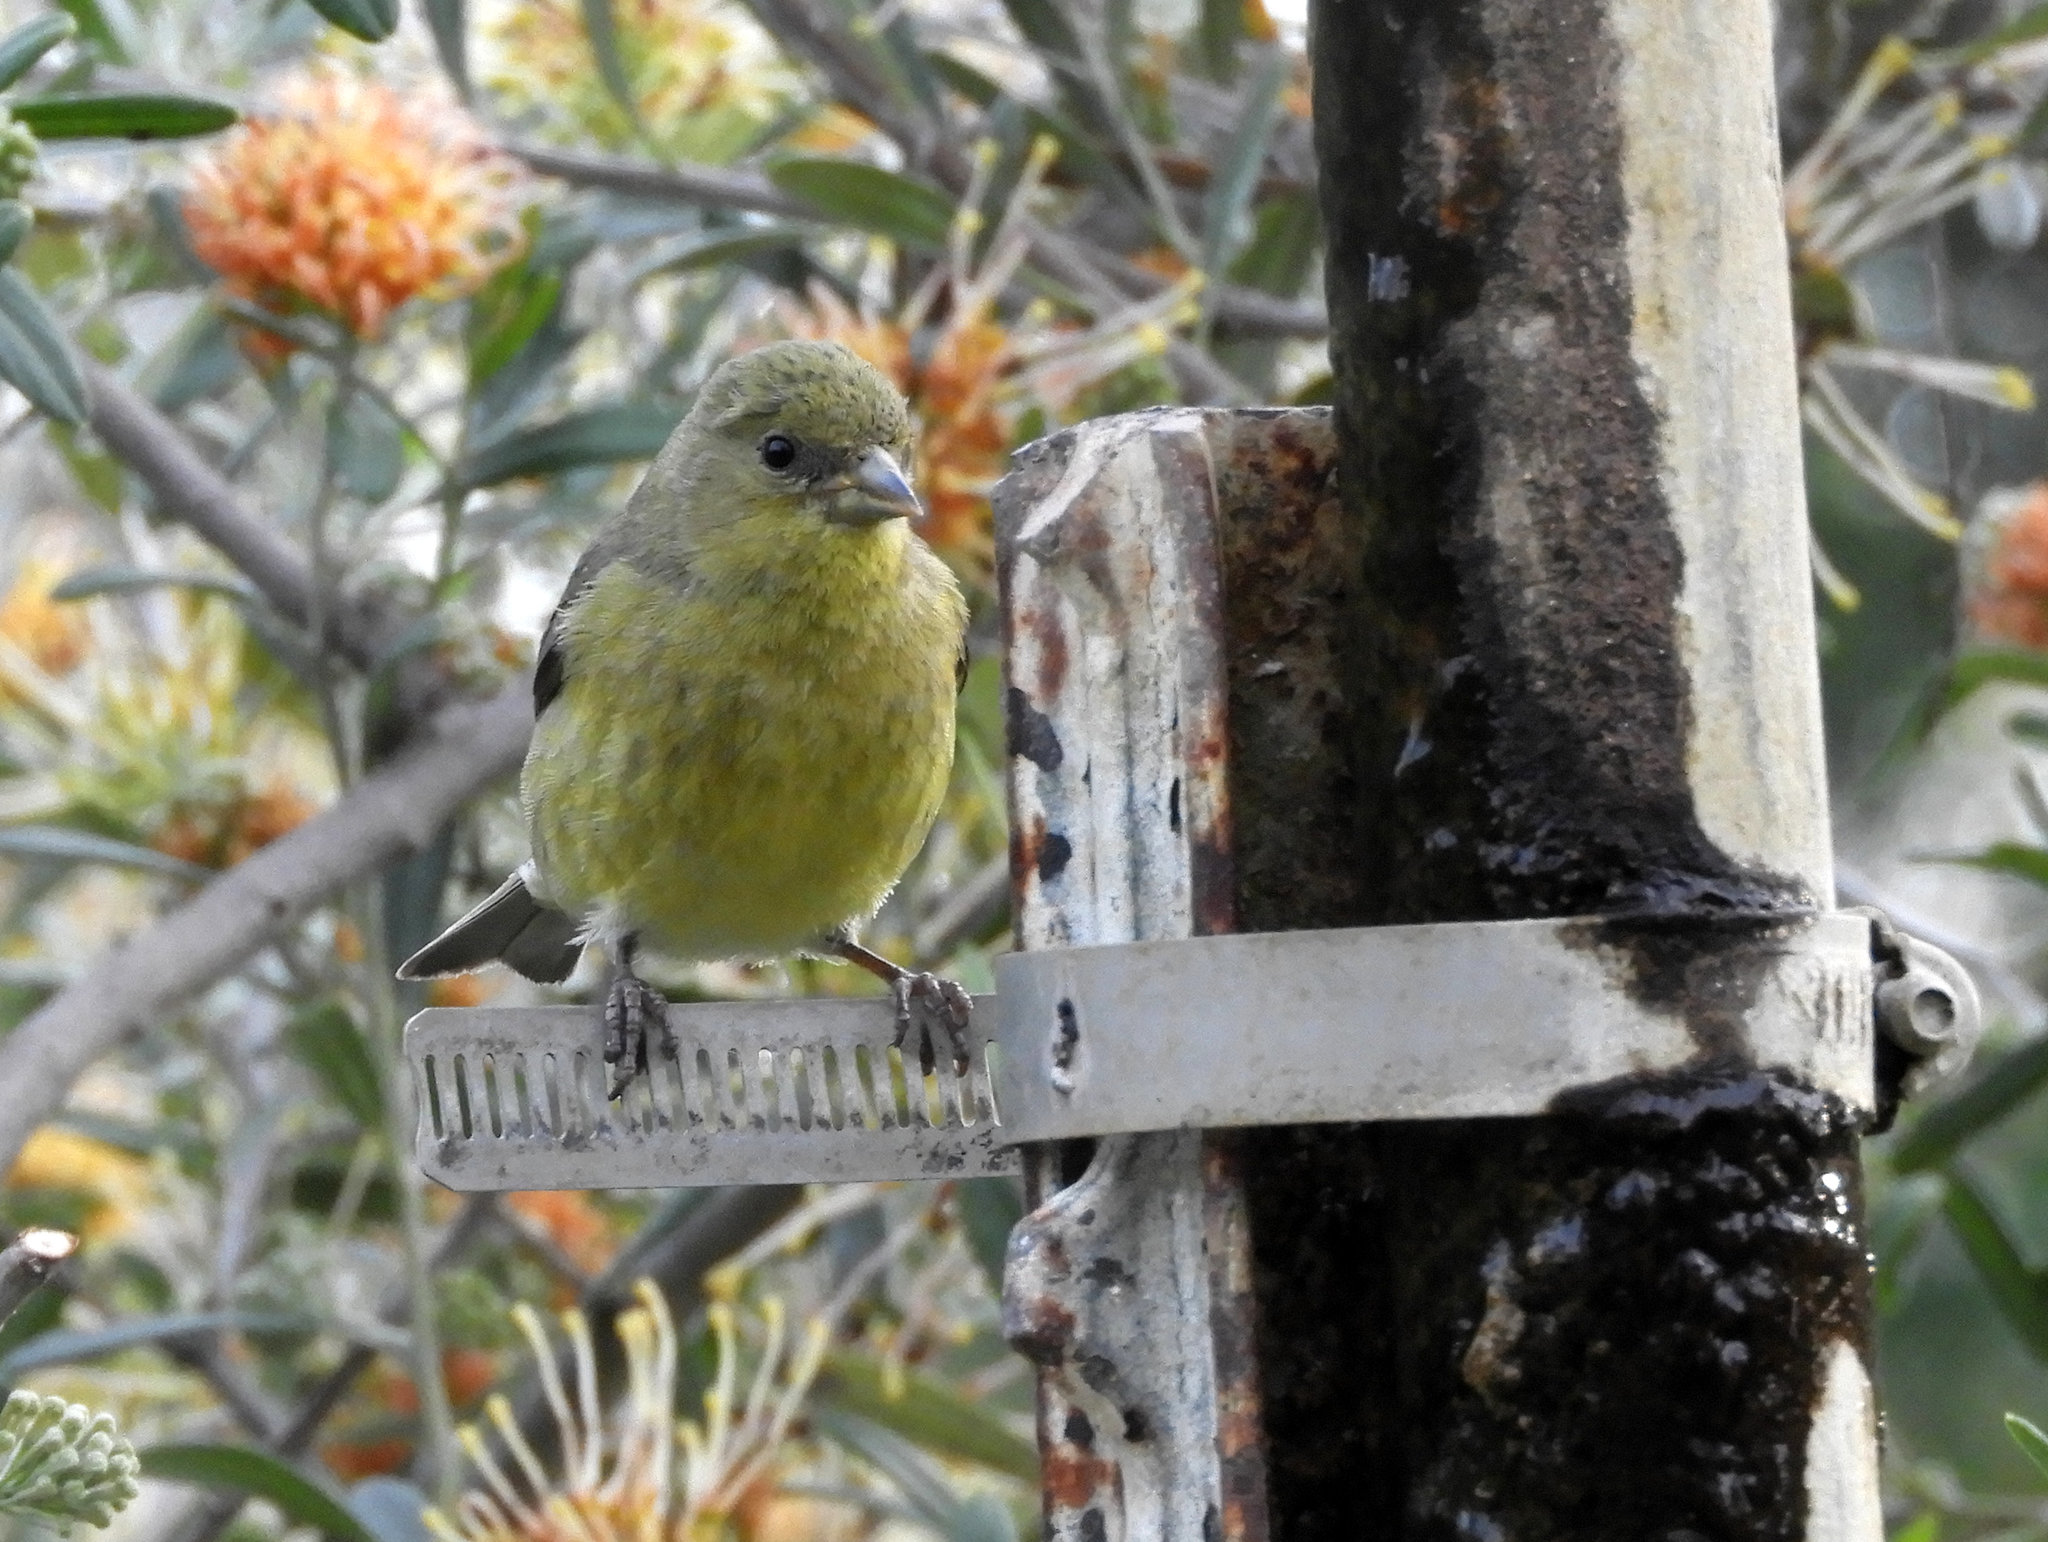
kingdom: Animalia
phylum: Chordata
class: Aves
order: Passeriformes
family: Fringillidae
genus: Spinus
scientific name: Spinus psaltria
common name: Lesser goldfinch
